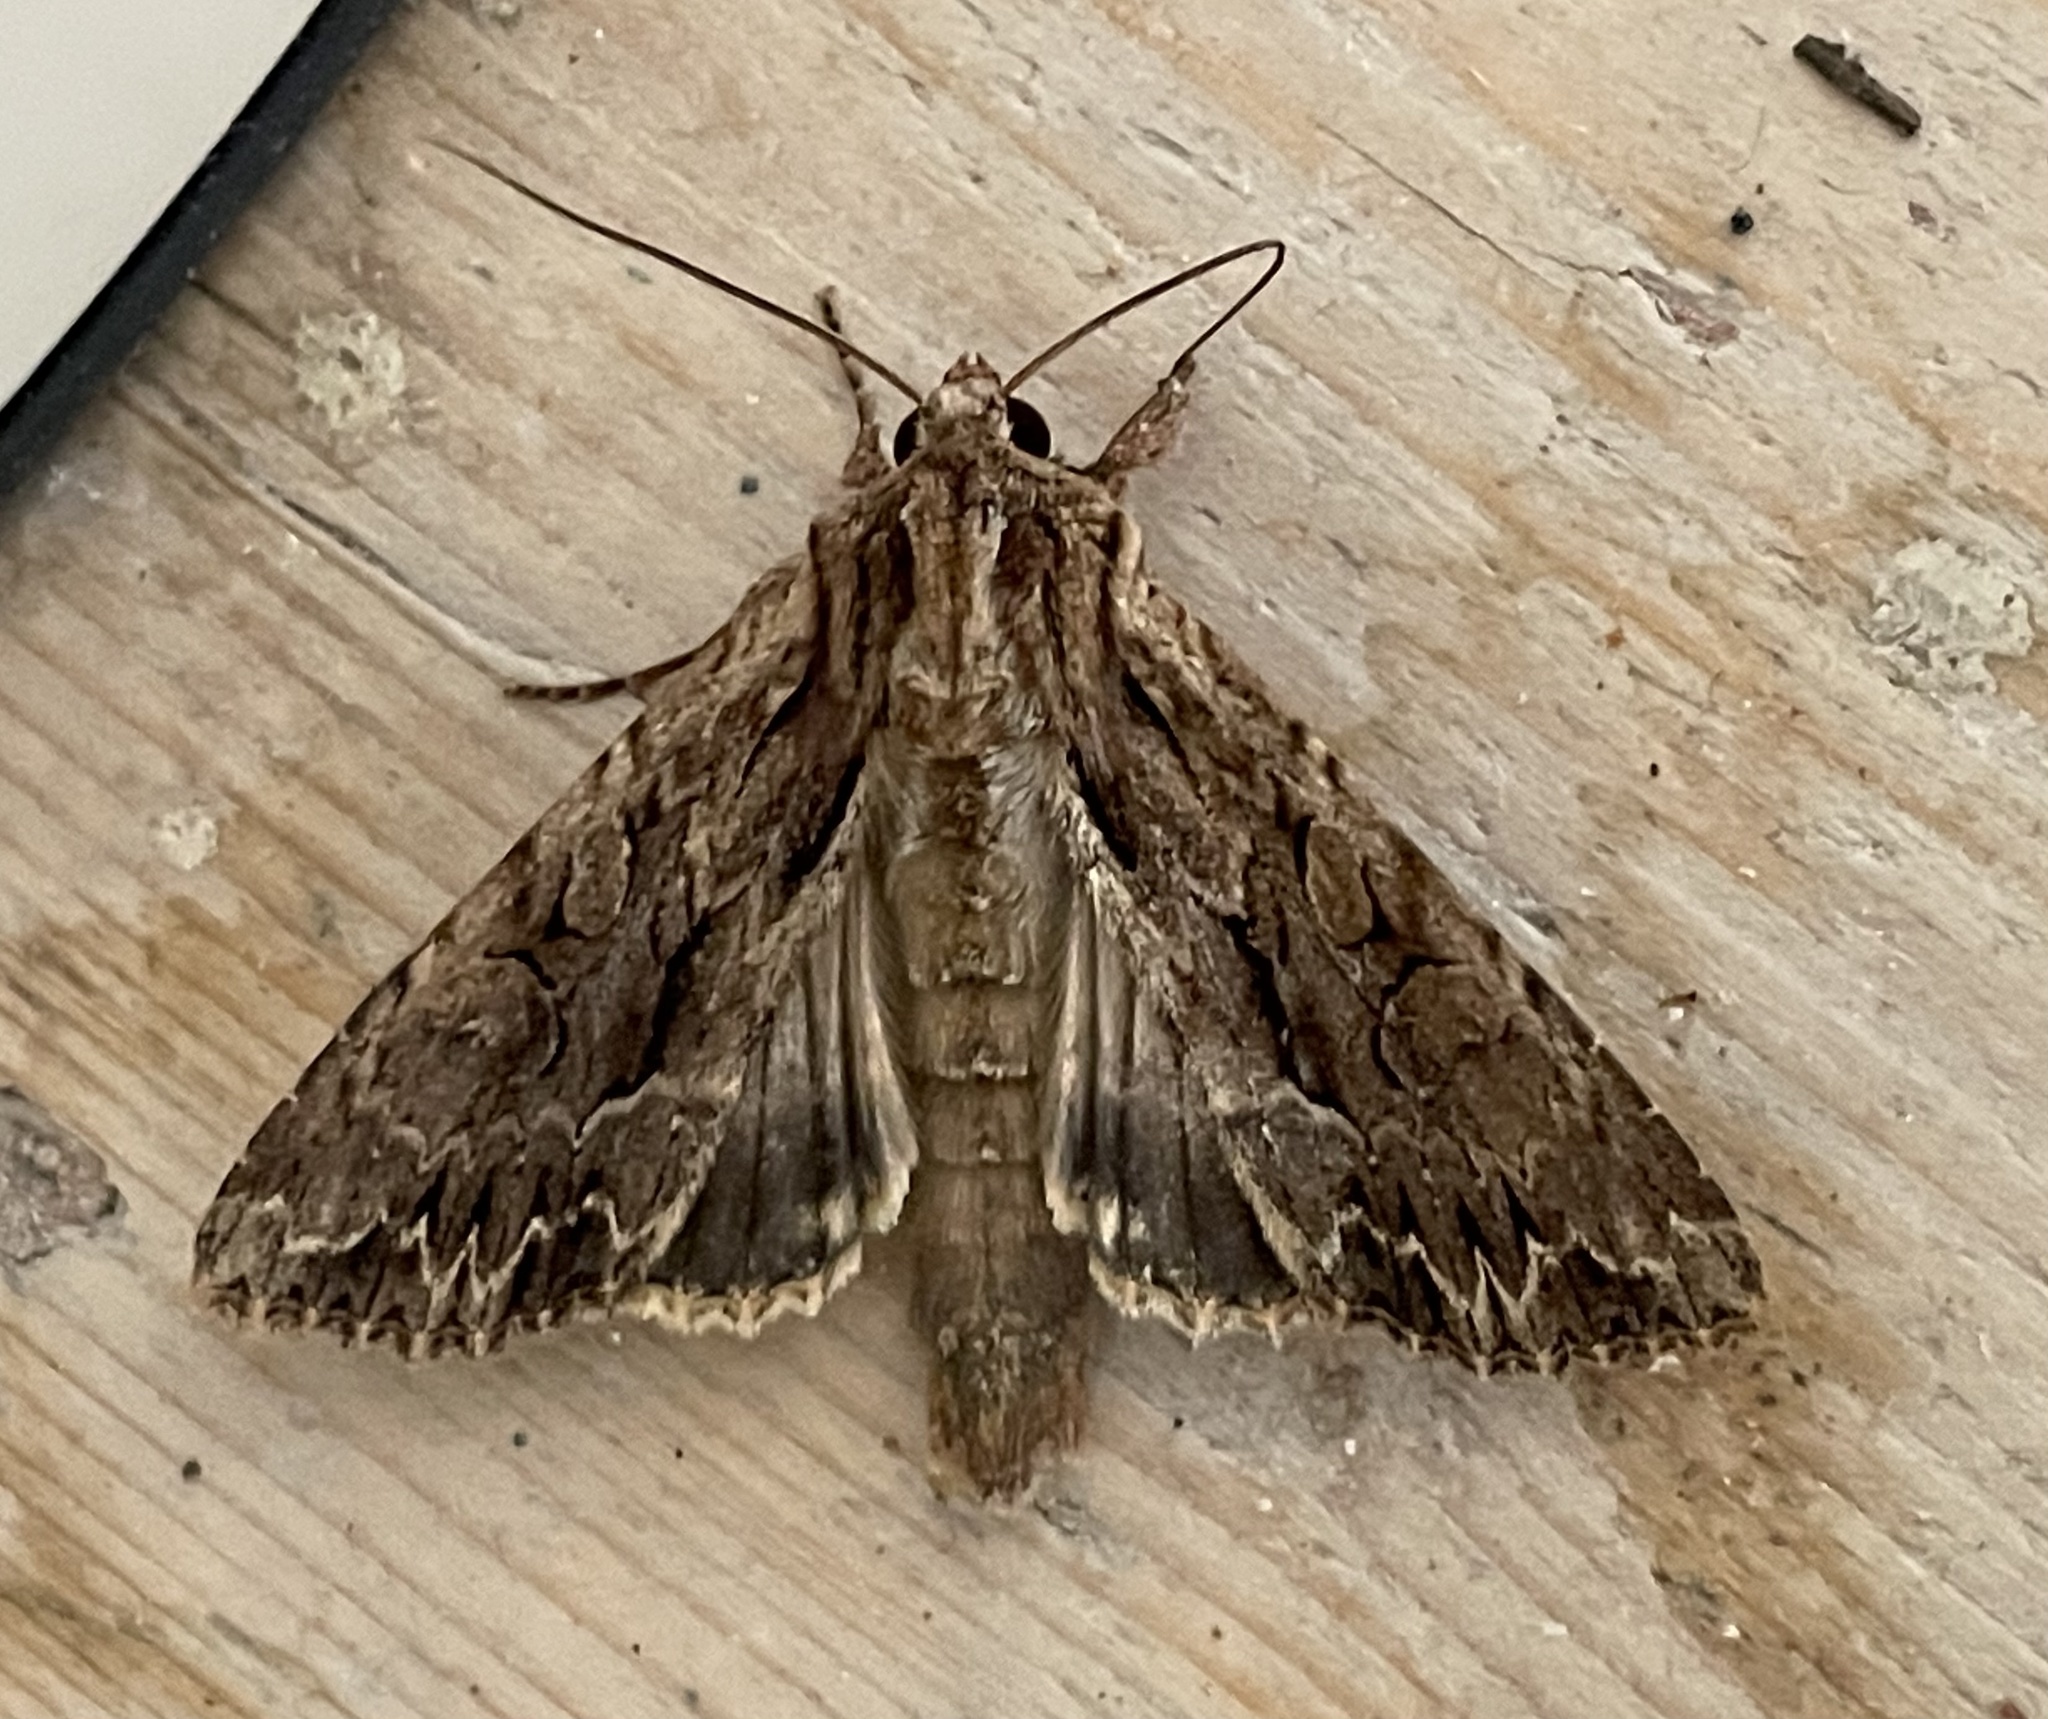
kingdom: Animalia
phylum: Arthropoda
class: Insecta
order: Lepidoptera
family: Noctuidae
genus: Apamea
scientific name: Apamea monoglypha
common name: Dark arches
